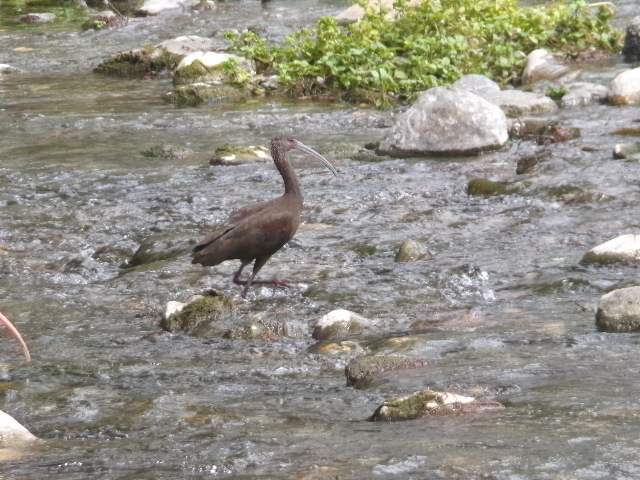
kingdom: Animalia
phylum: Chordata
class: Aves
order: Pelecaniformes
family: Threskiornithidae
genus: Plegadis
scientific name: Plegadis chihi
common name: White-faced ibis
